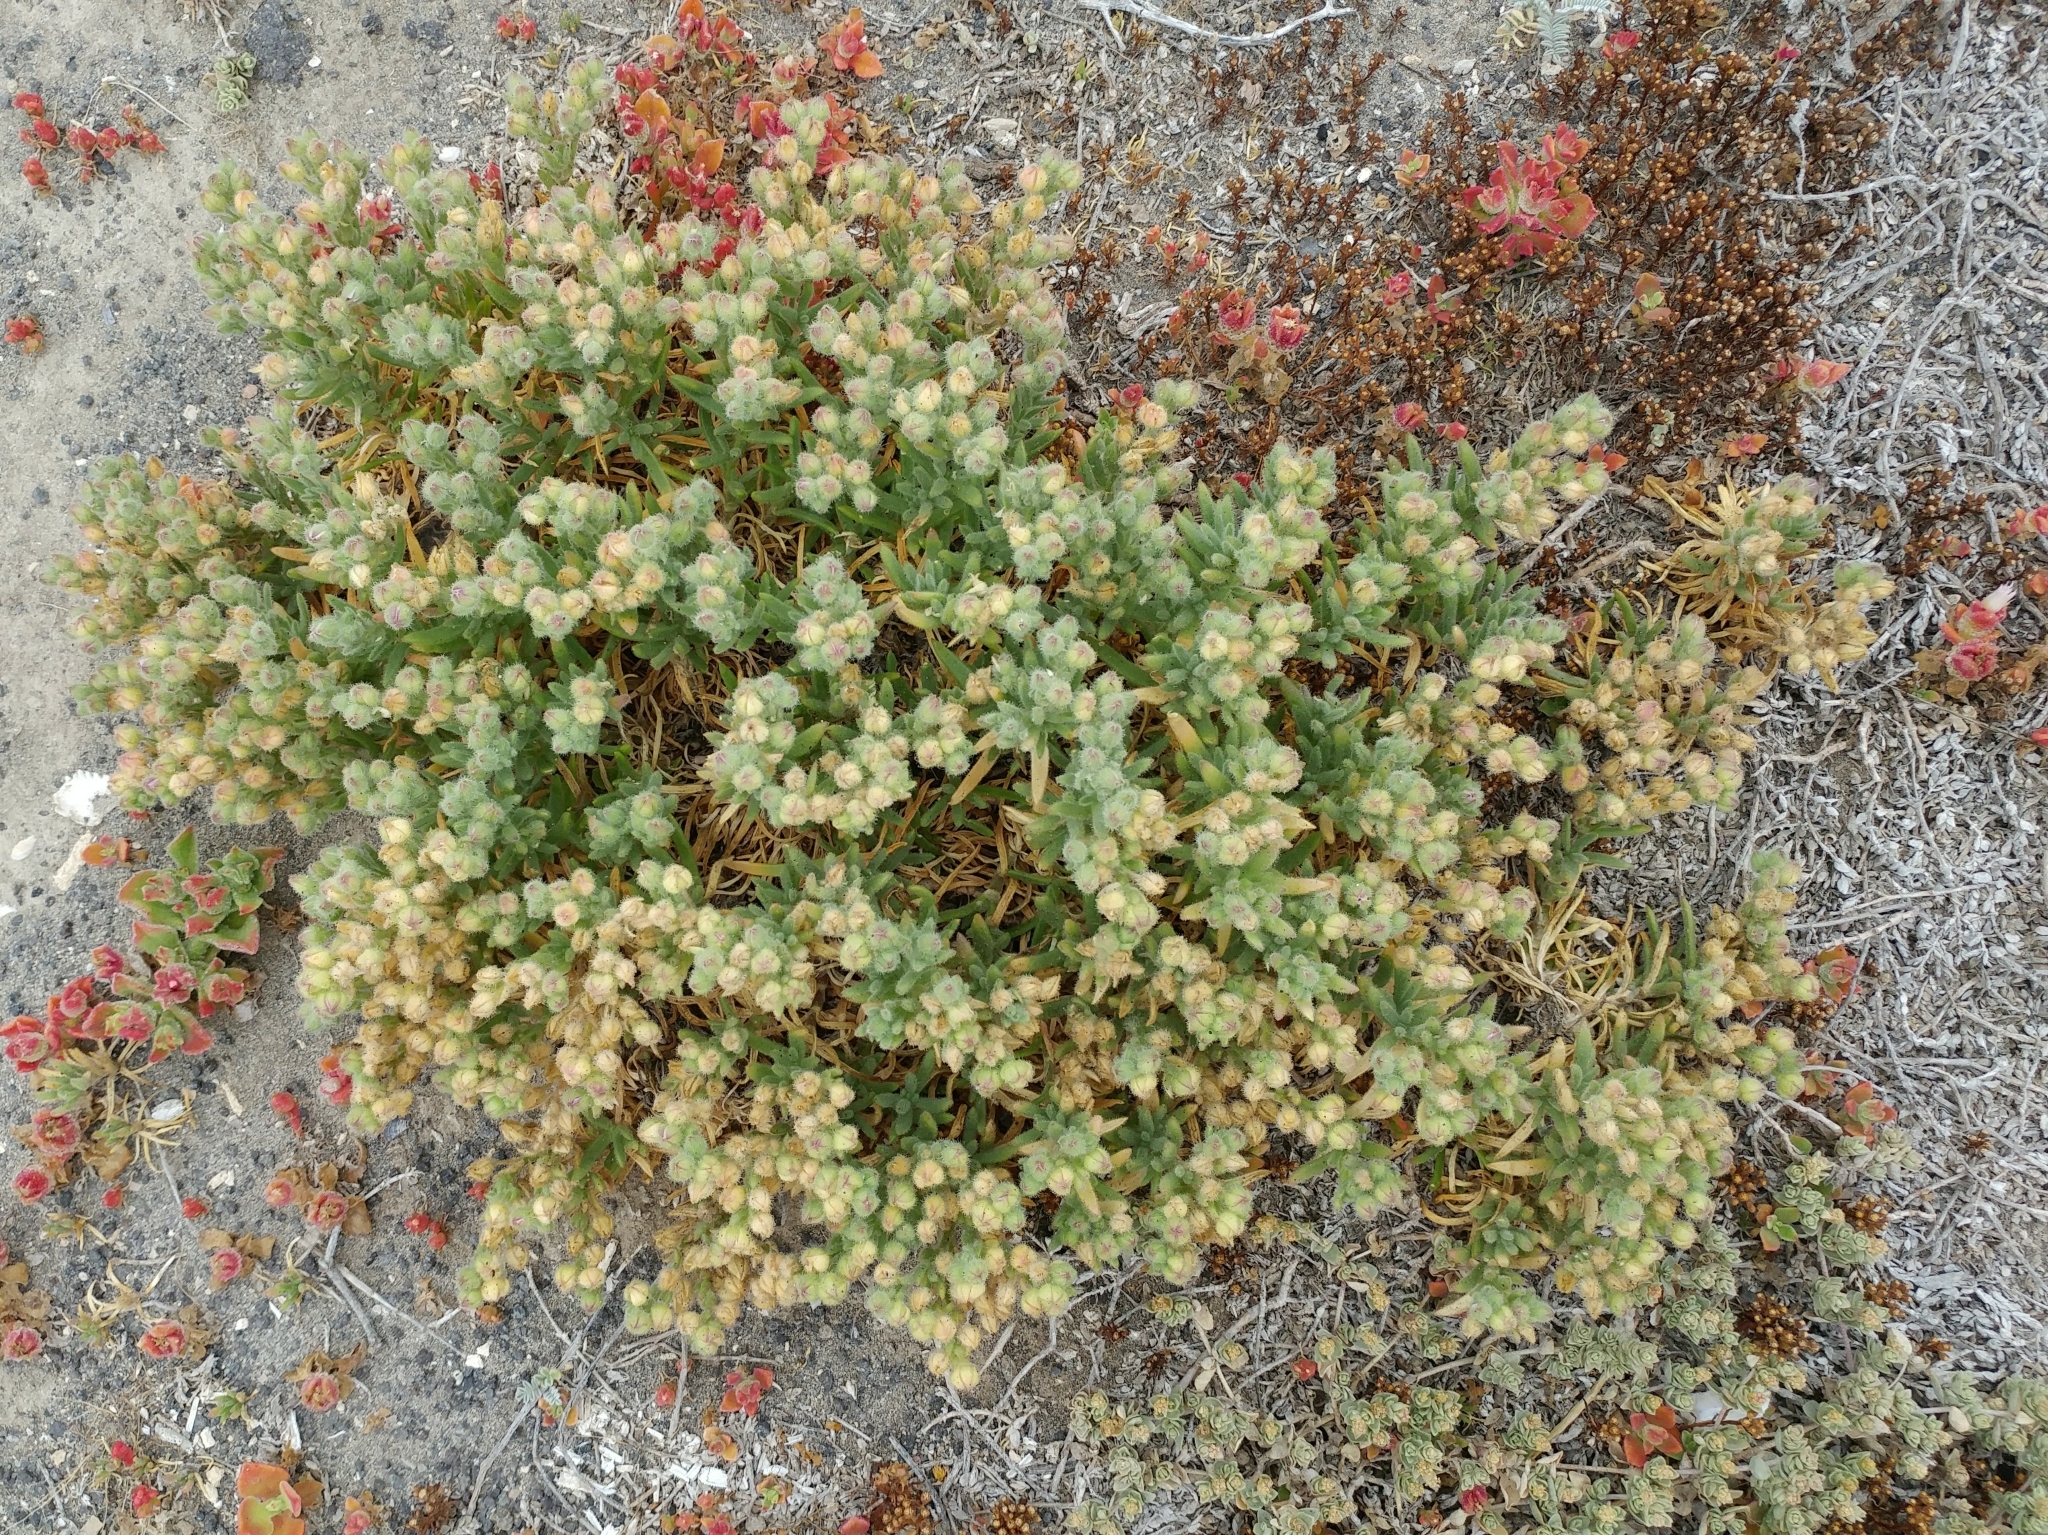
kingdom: Plantae
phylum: Tracheophyta
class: Magnoliopsida
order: Caryophyllales
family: Caryophyllaceae
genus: Spergularia
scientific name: Spergularia macrotheca
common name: Beach sand-spurrey
